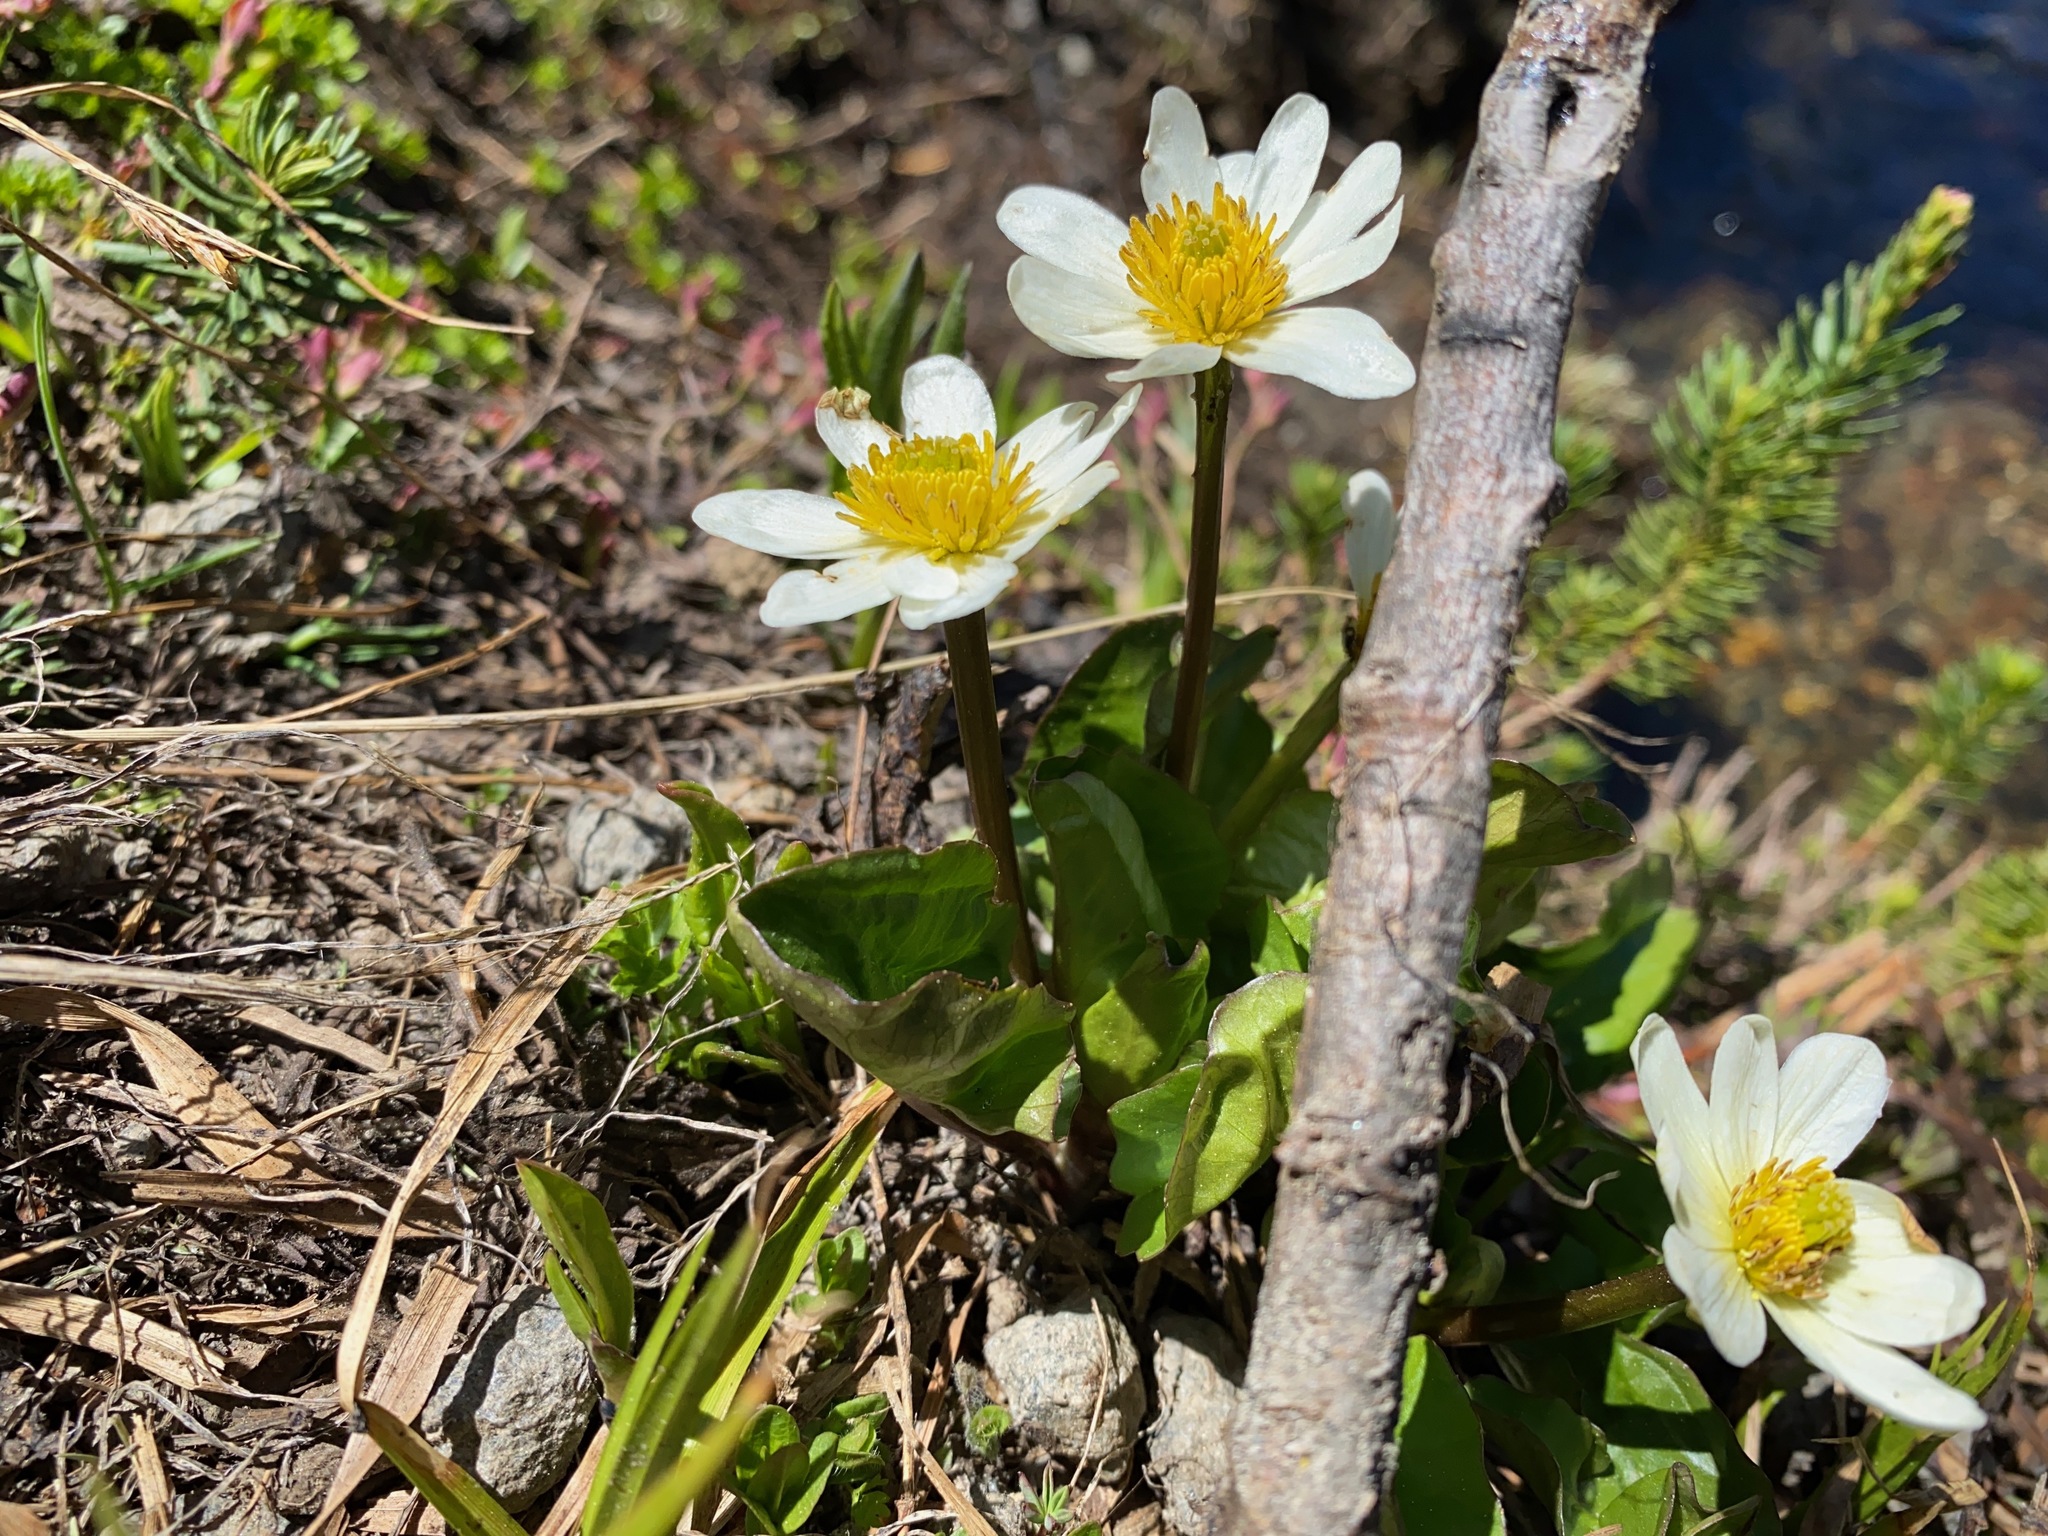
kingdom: Plantae
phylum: Tracheophyta
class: Magnoliopsida
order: Ranunculales
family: Ranunculaceae
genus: Caltha
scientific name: Caltha leptosepala
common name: Elkslip
